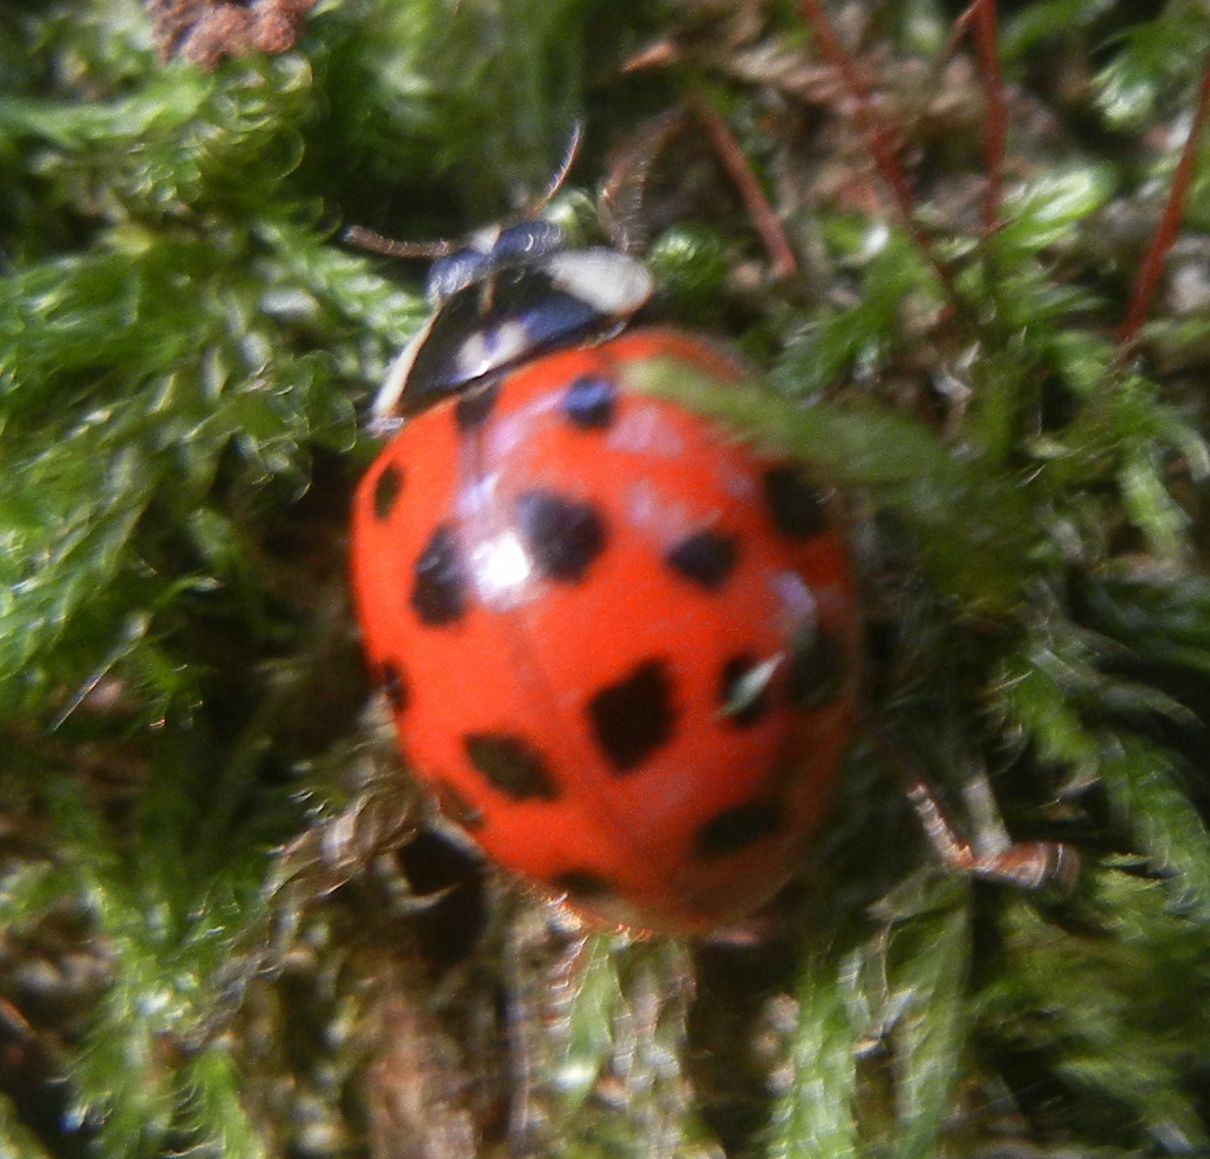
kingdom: Animalia
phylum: Arthropoda
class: Insecta
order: Coleoptera
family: Coccinellidae
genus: Harmonia
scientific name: Harmonia axyridis
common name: Harlequin ladybird
